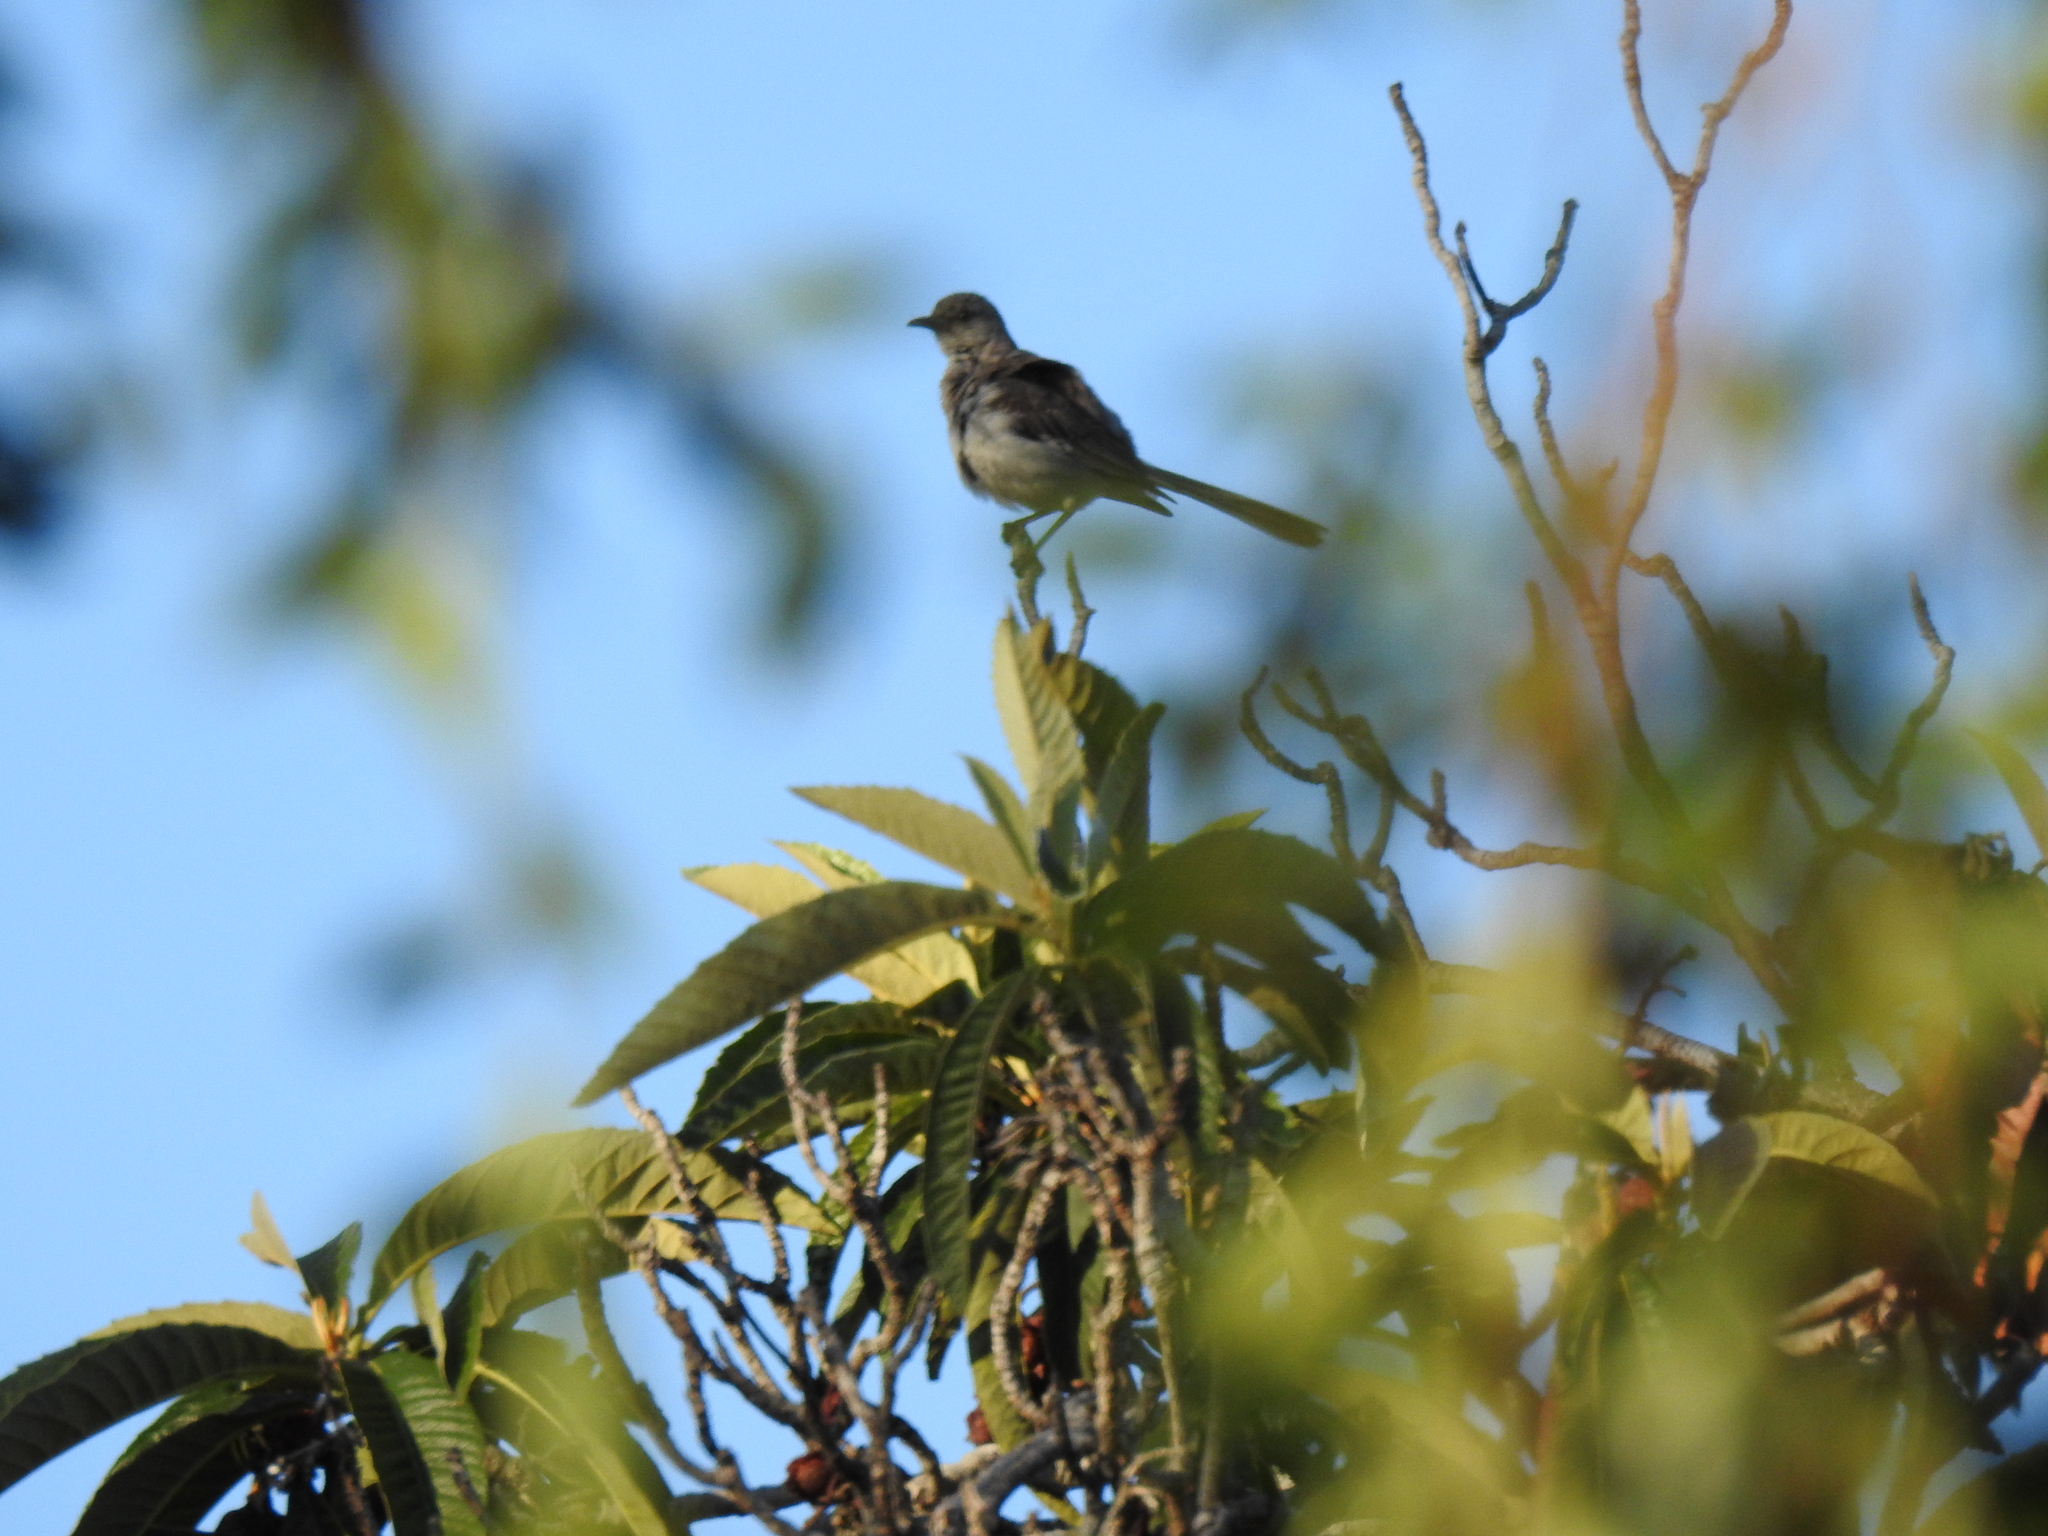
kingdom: Animalia
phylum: Chordata
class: Aves
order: Passeriformes
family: Mimidae
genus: Mimus
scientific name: Mimus polyglottos
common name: Northern mockingbird
